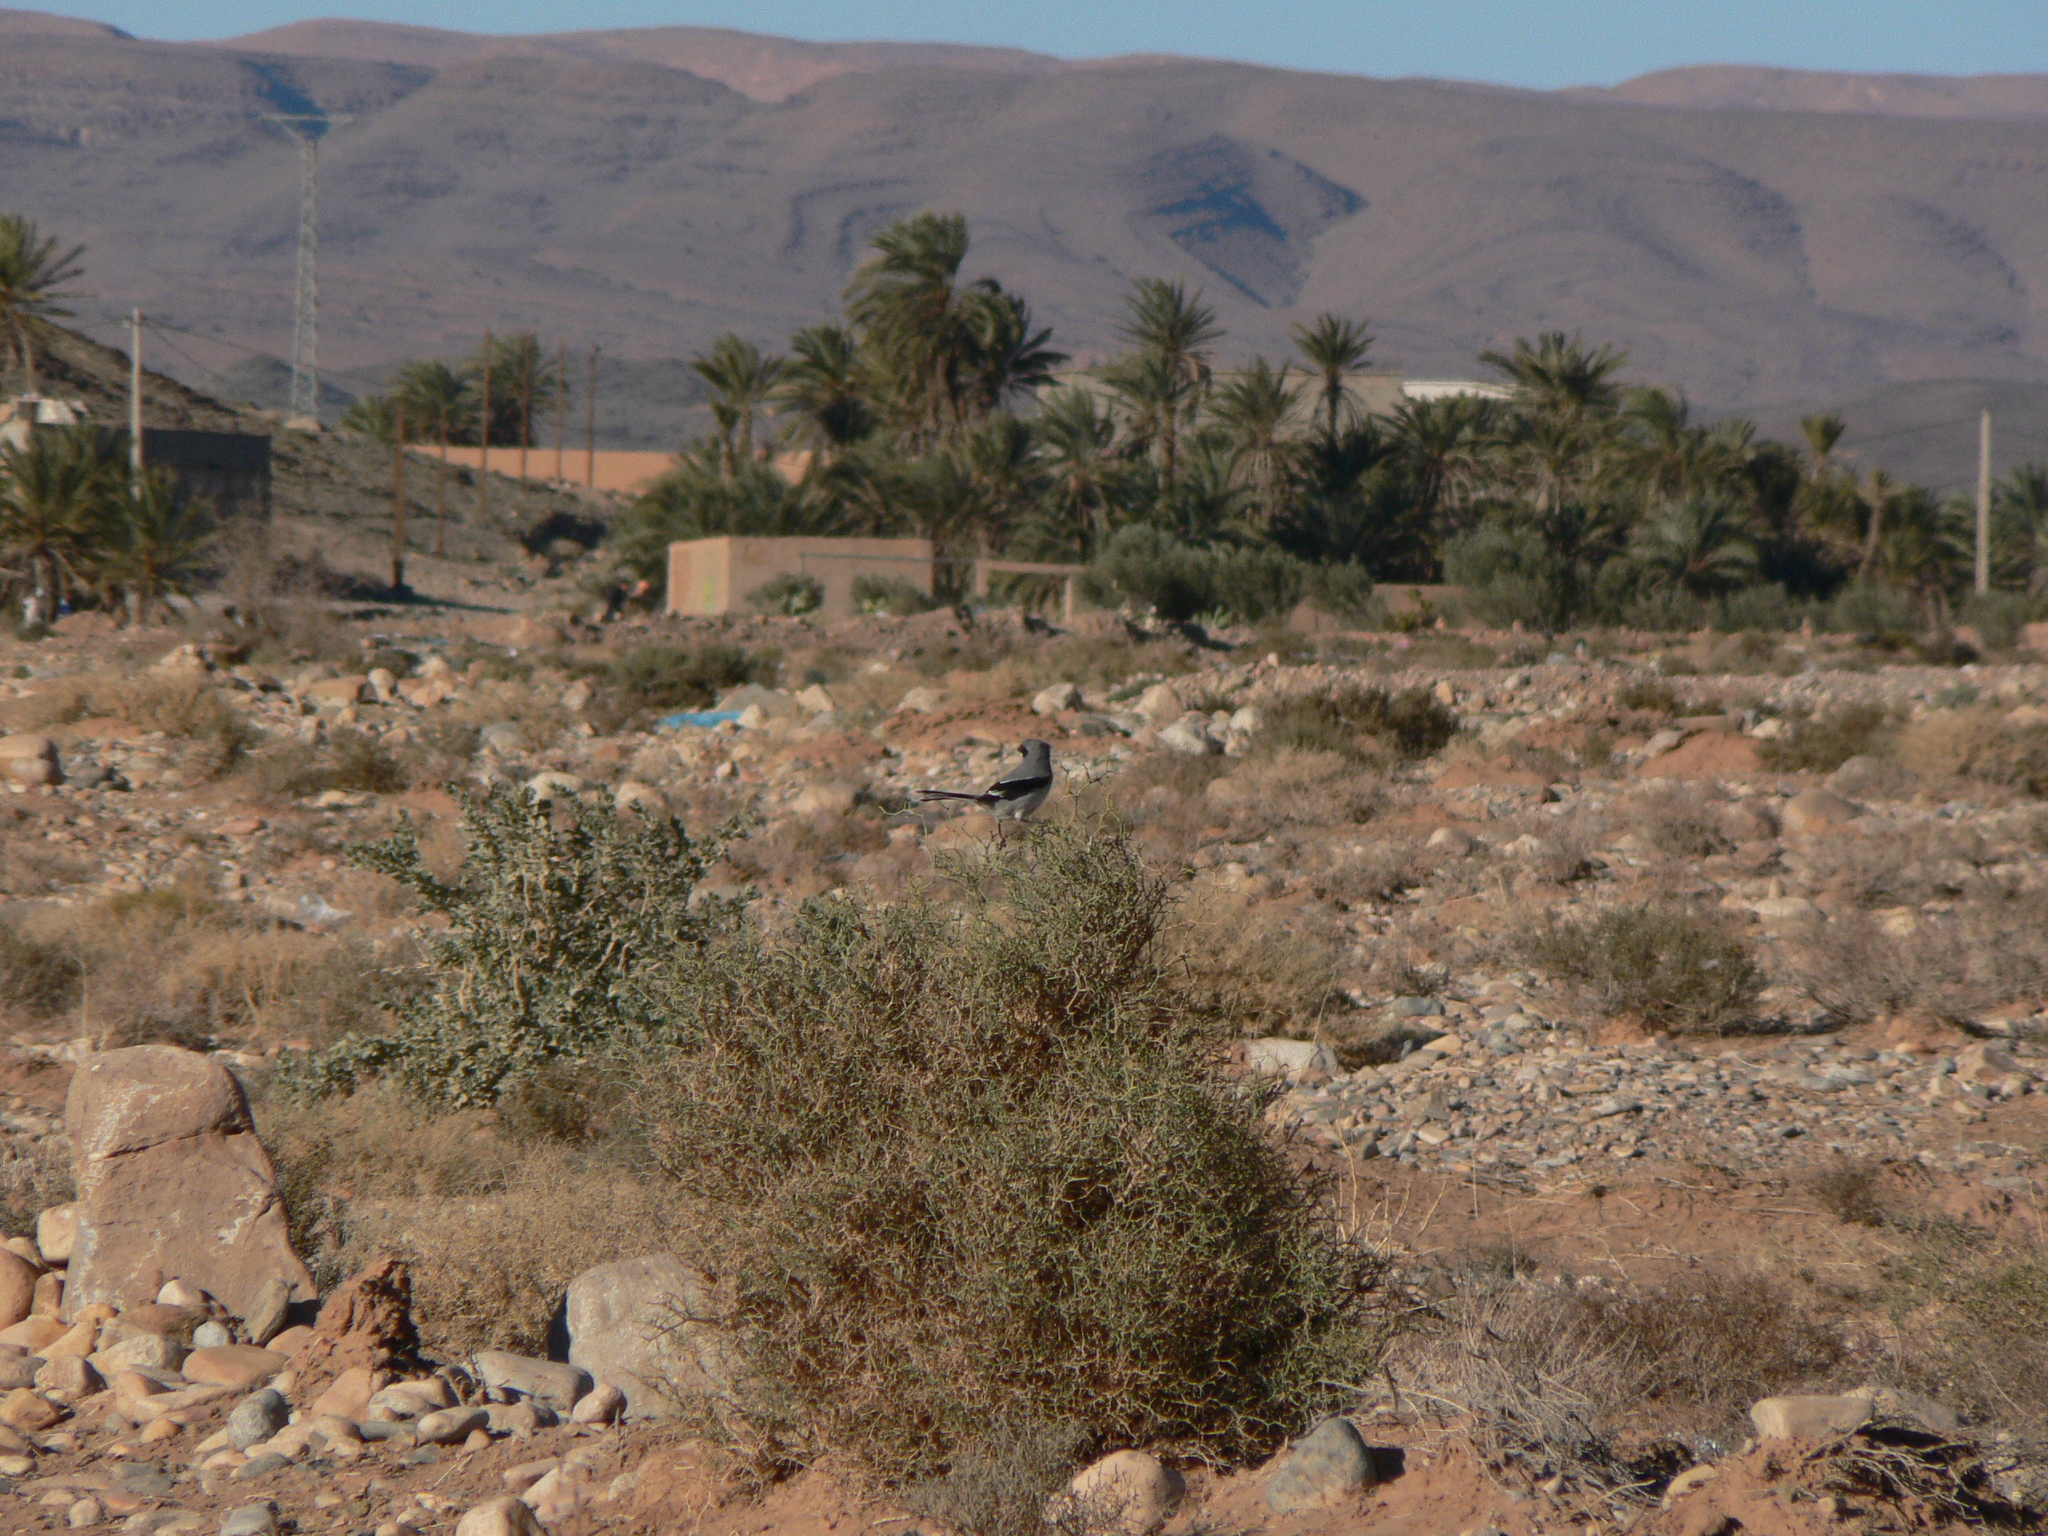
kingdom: Animalia
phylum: Chordata
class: Aves
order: Passeriformes
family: Laniidae
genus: Lanius
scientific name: Lanius excubitor
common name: Great grey shrike
